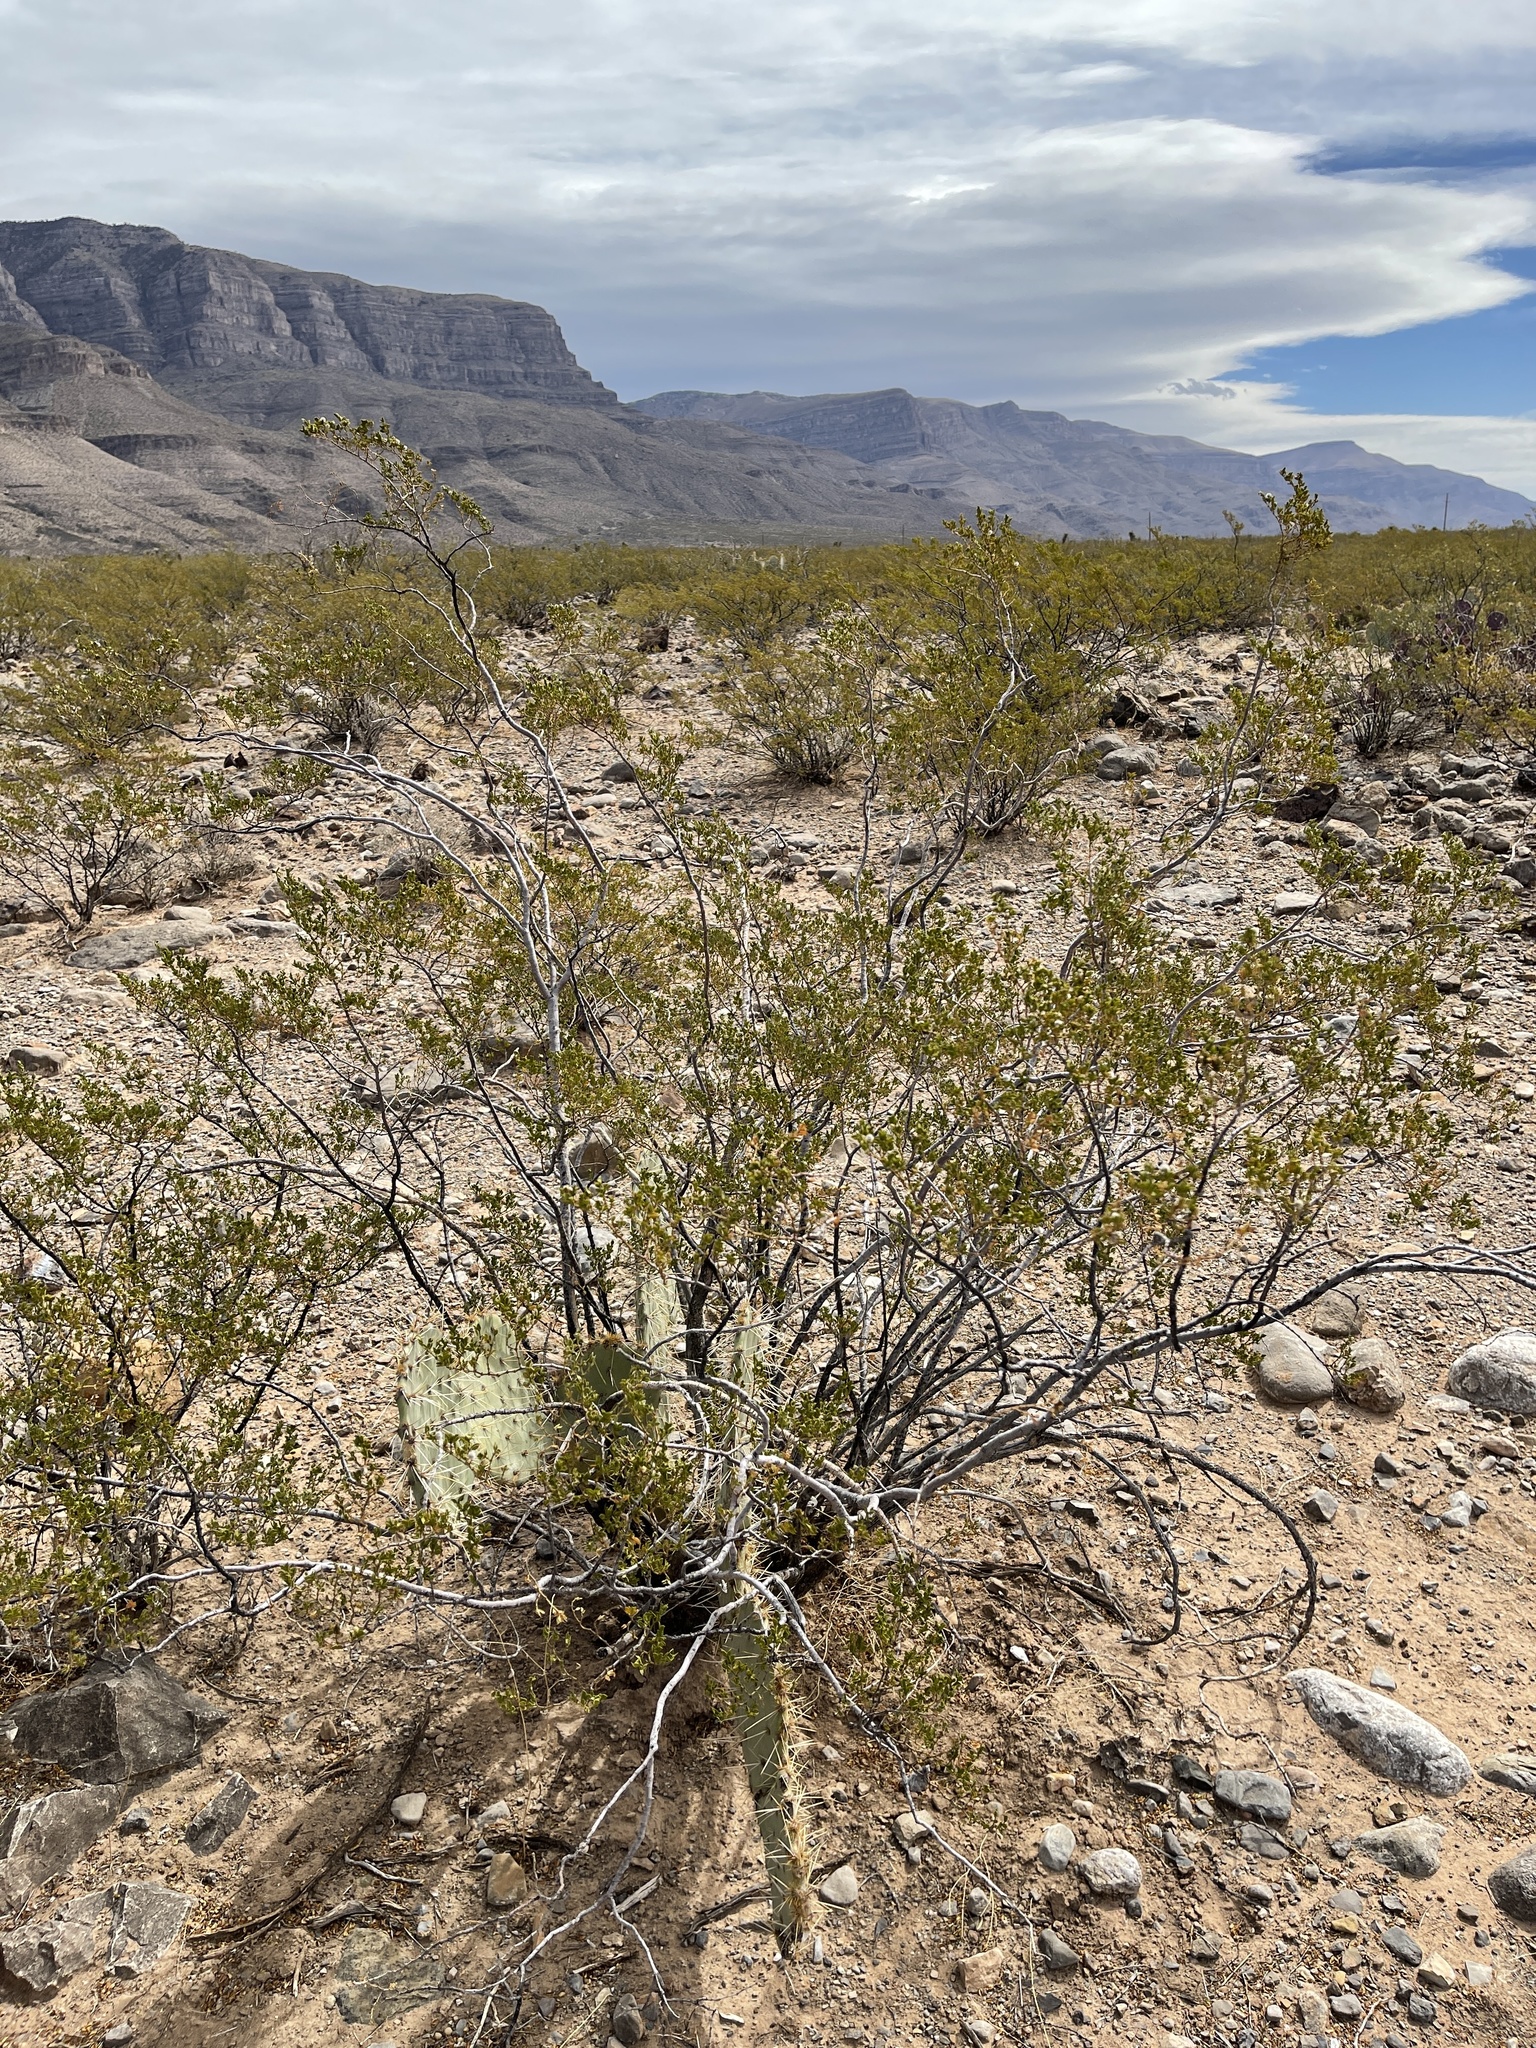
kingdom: Plantae
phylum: Tracheophyta
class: Magnoliopsida
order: Zygophyllales
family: Zygophyllaceae
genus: Larrea
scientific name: Larrea tridentata
